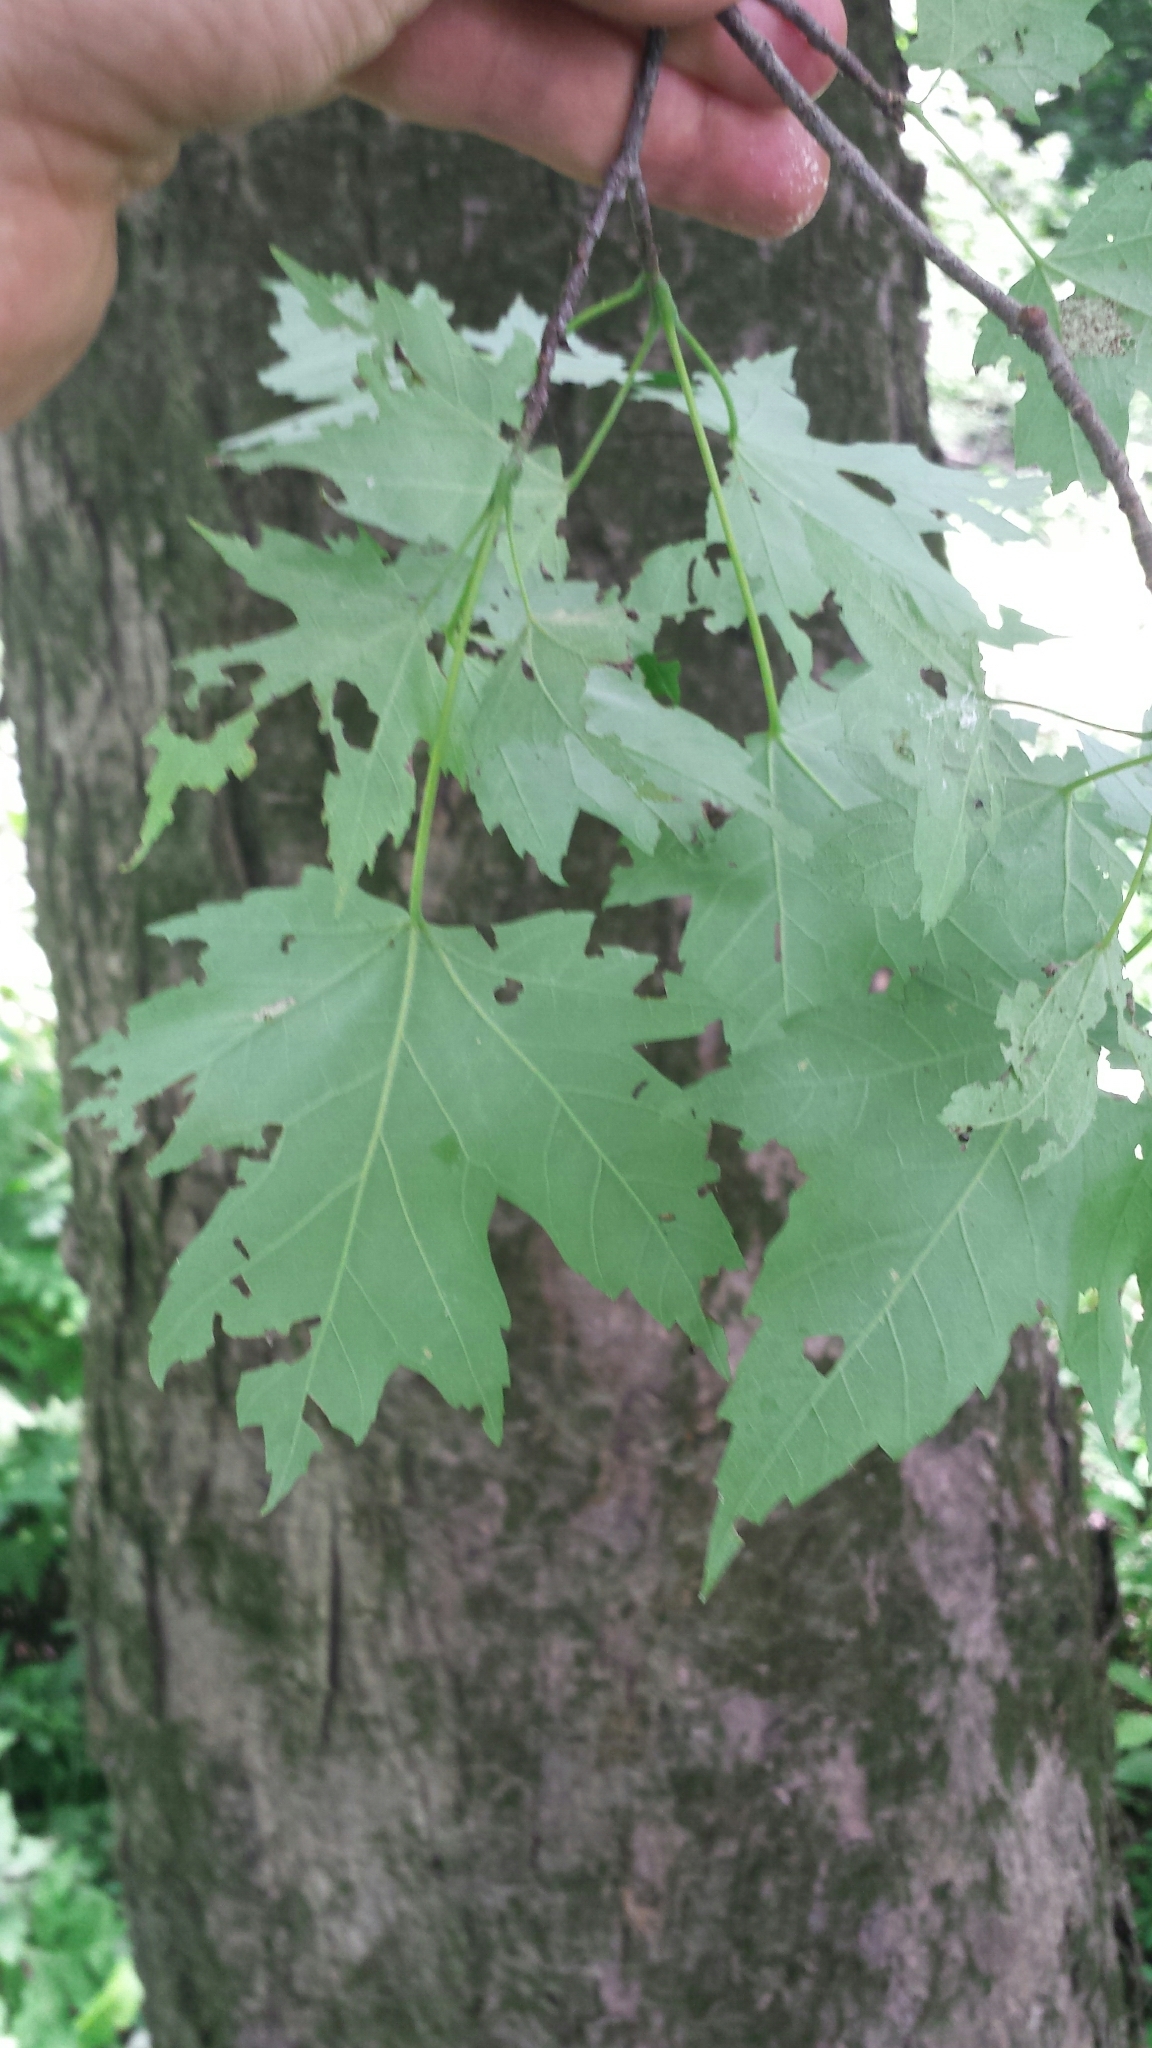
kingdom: Plantae
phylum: Tracheophyta
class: Magnoliopsida
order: Sapindales
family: Sapindaceae
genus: Acer
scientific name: Acer saccharinum
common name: Silver maple
